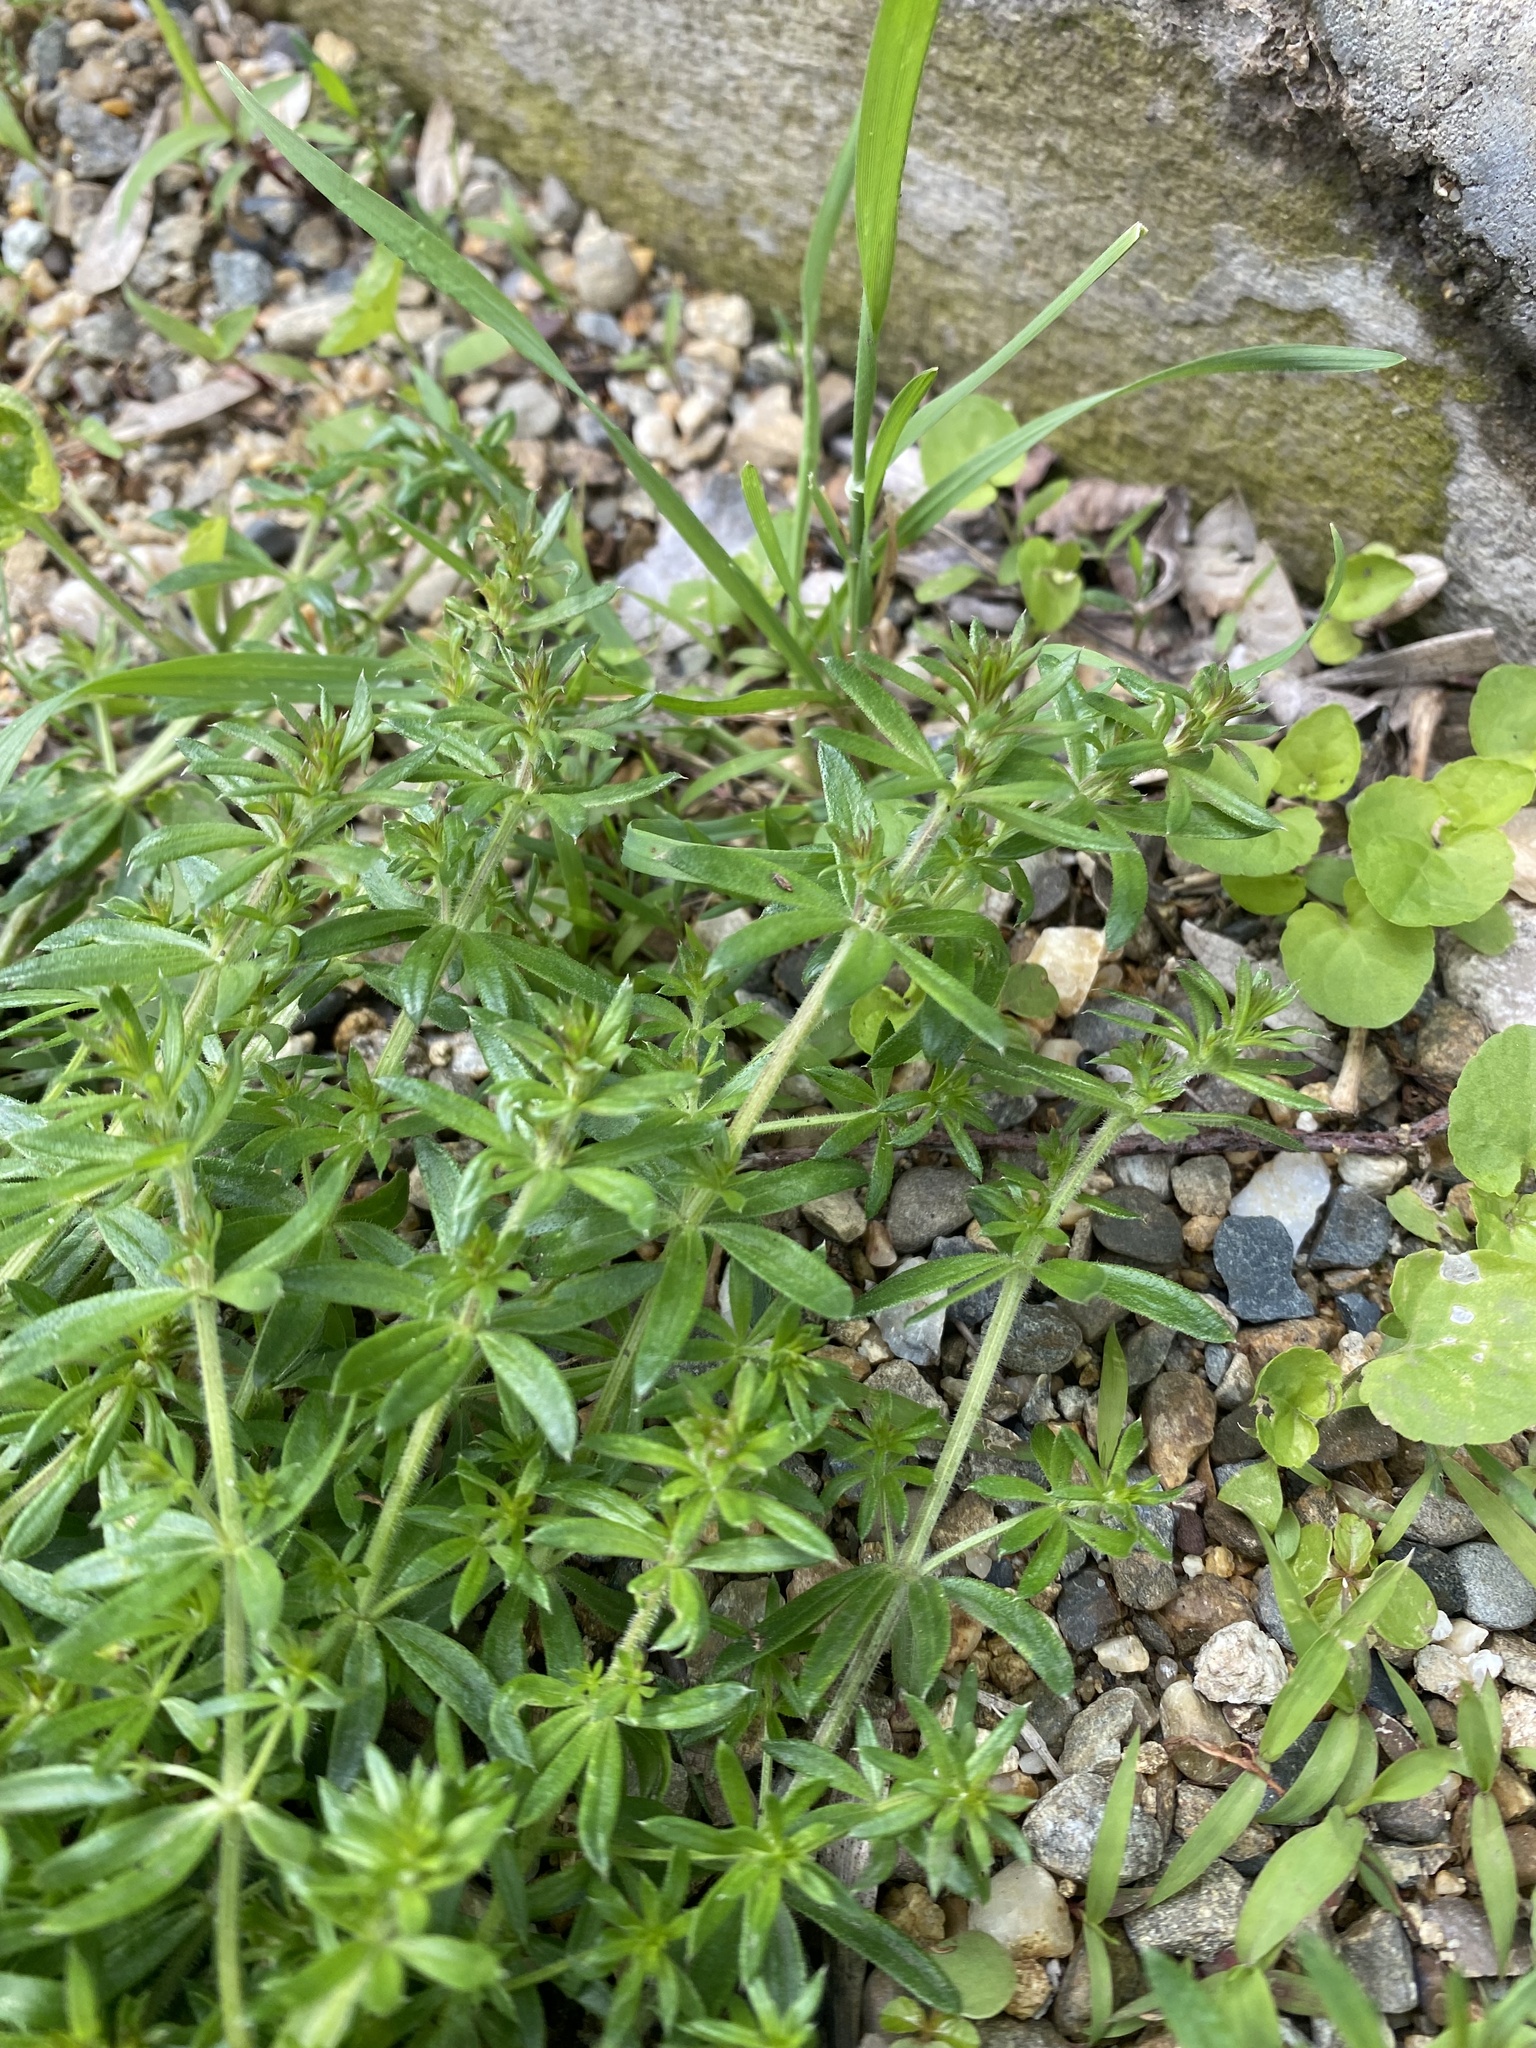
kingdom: Plantae
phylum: Tracheophyta
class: Magnoliopsida
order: Gentianales
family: Rubiaceae
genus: Galium
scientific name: Galium humifusum
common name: Spreading bedstraw
